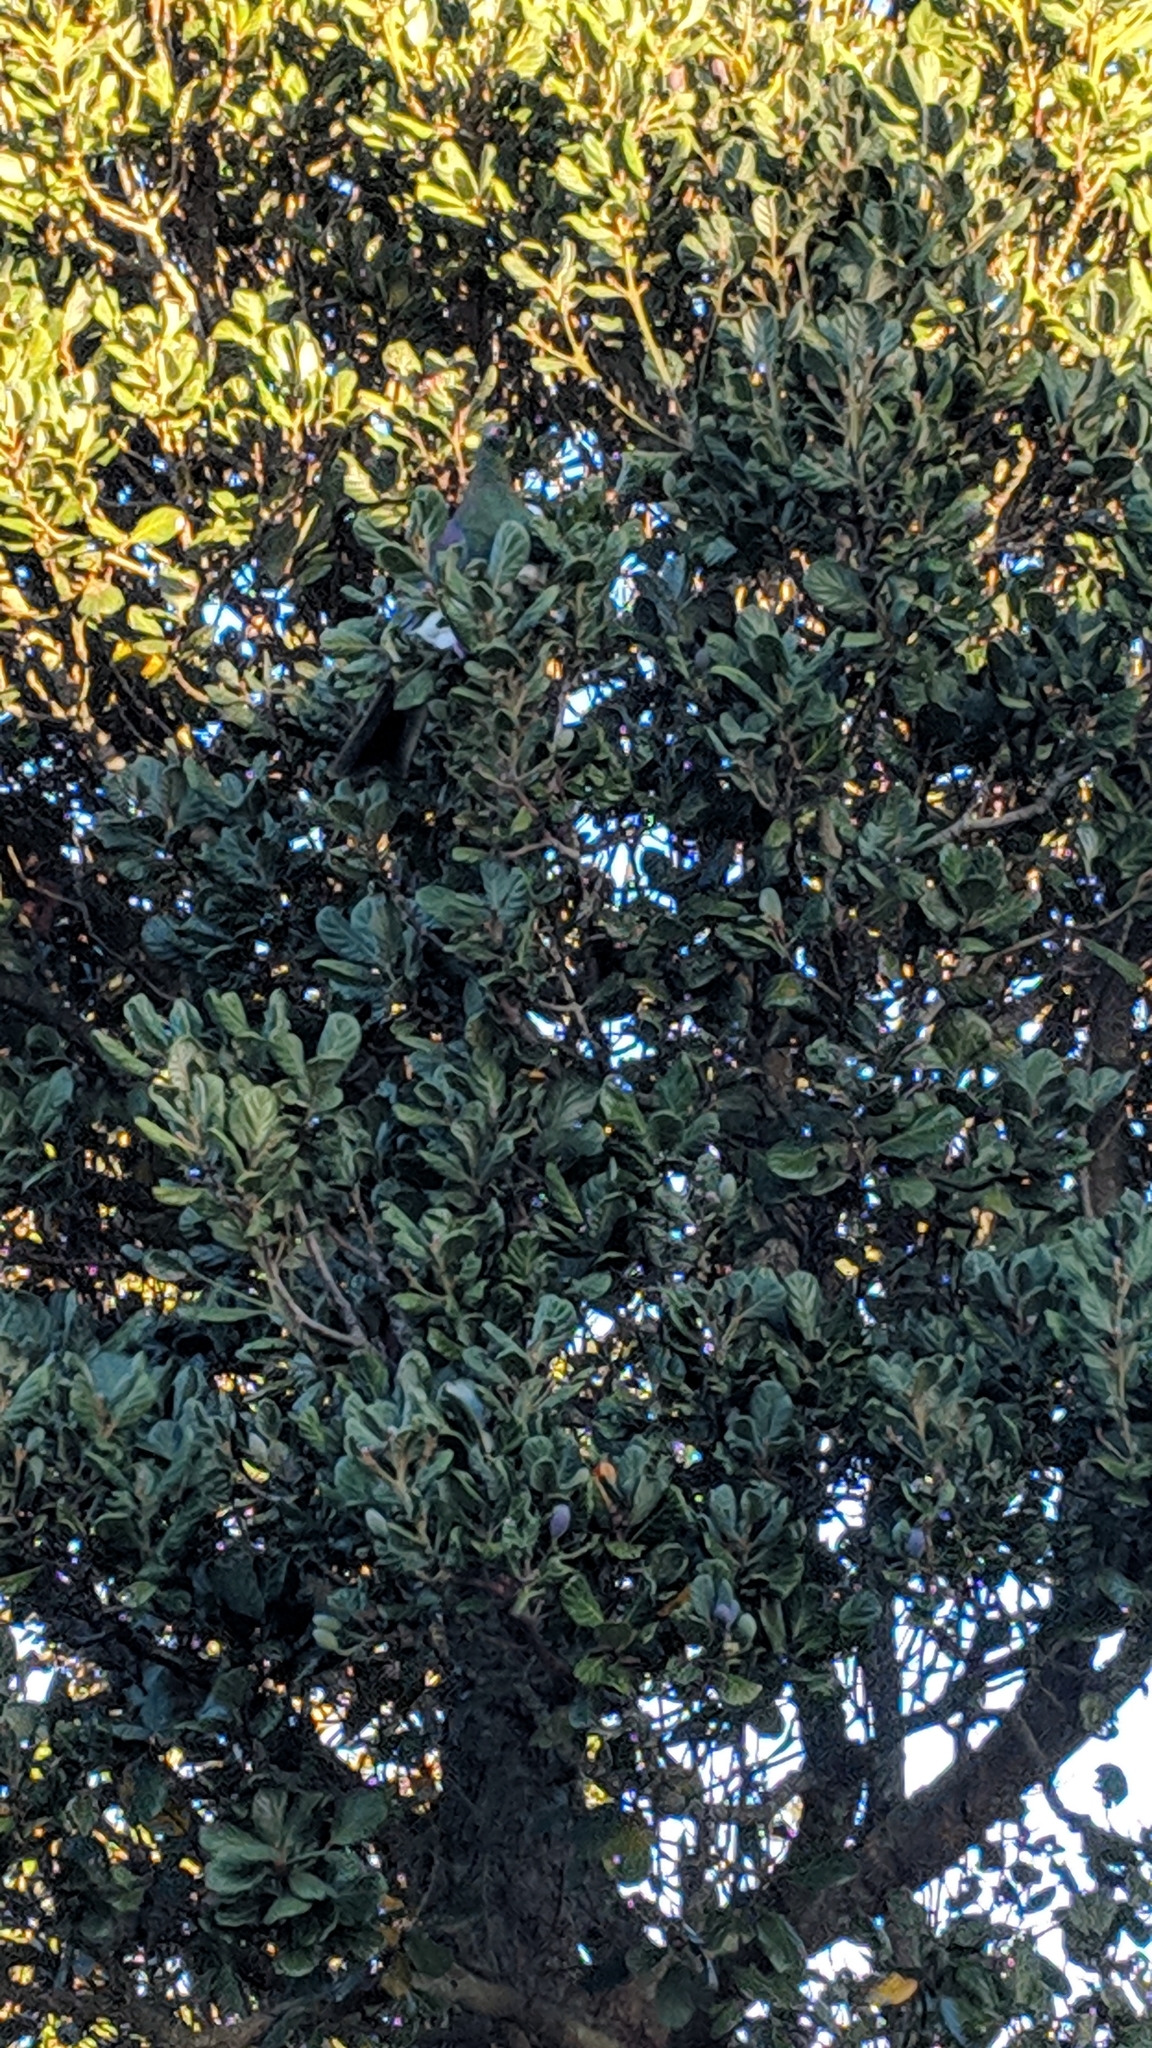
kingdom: Animalia
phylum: Chordata
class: Aves
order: Columbiformes
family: Columbidae
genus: Hemiphaga
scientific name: Hemiphaga novaeseelandiae
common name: New zealand pigeon
